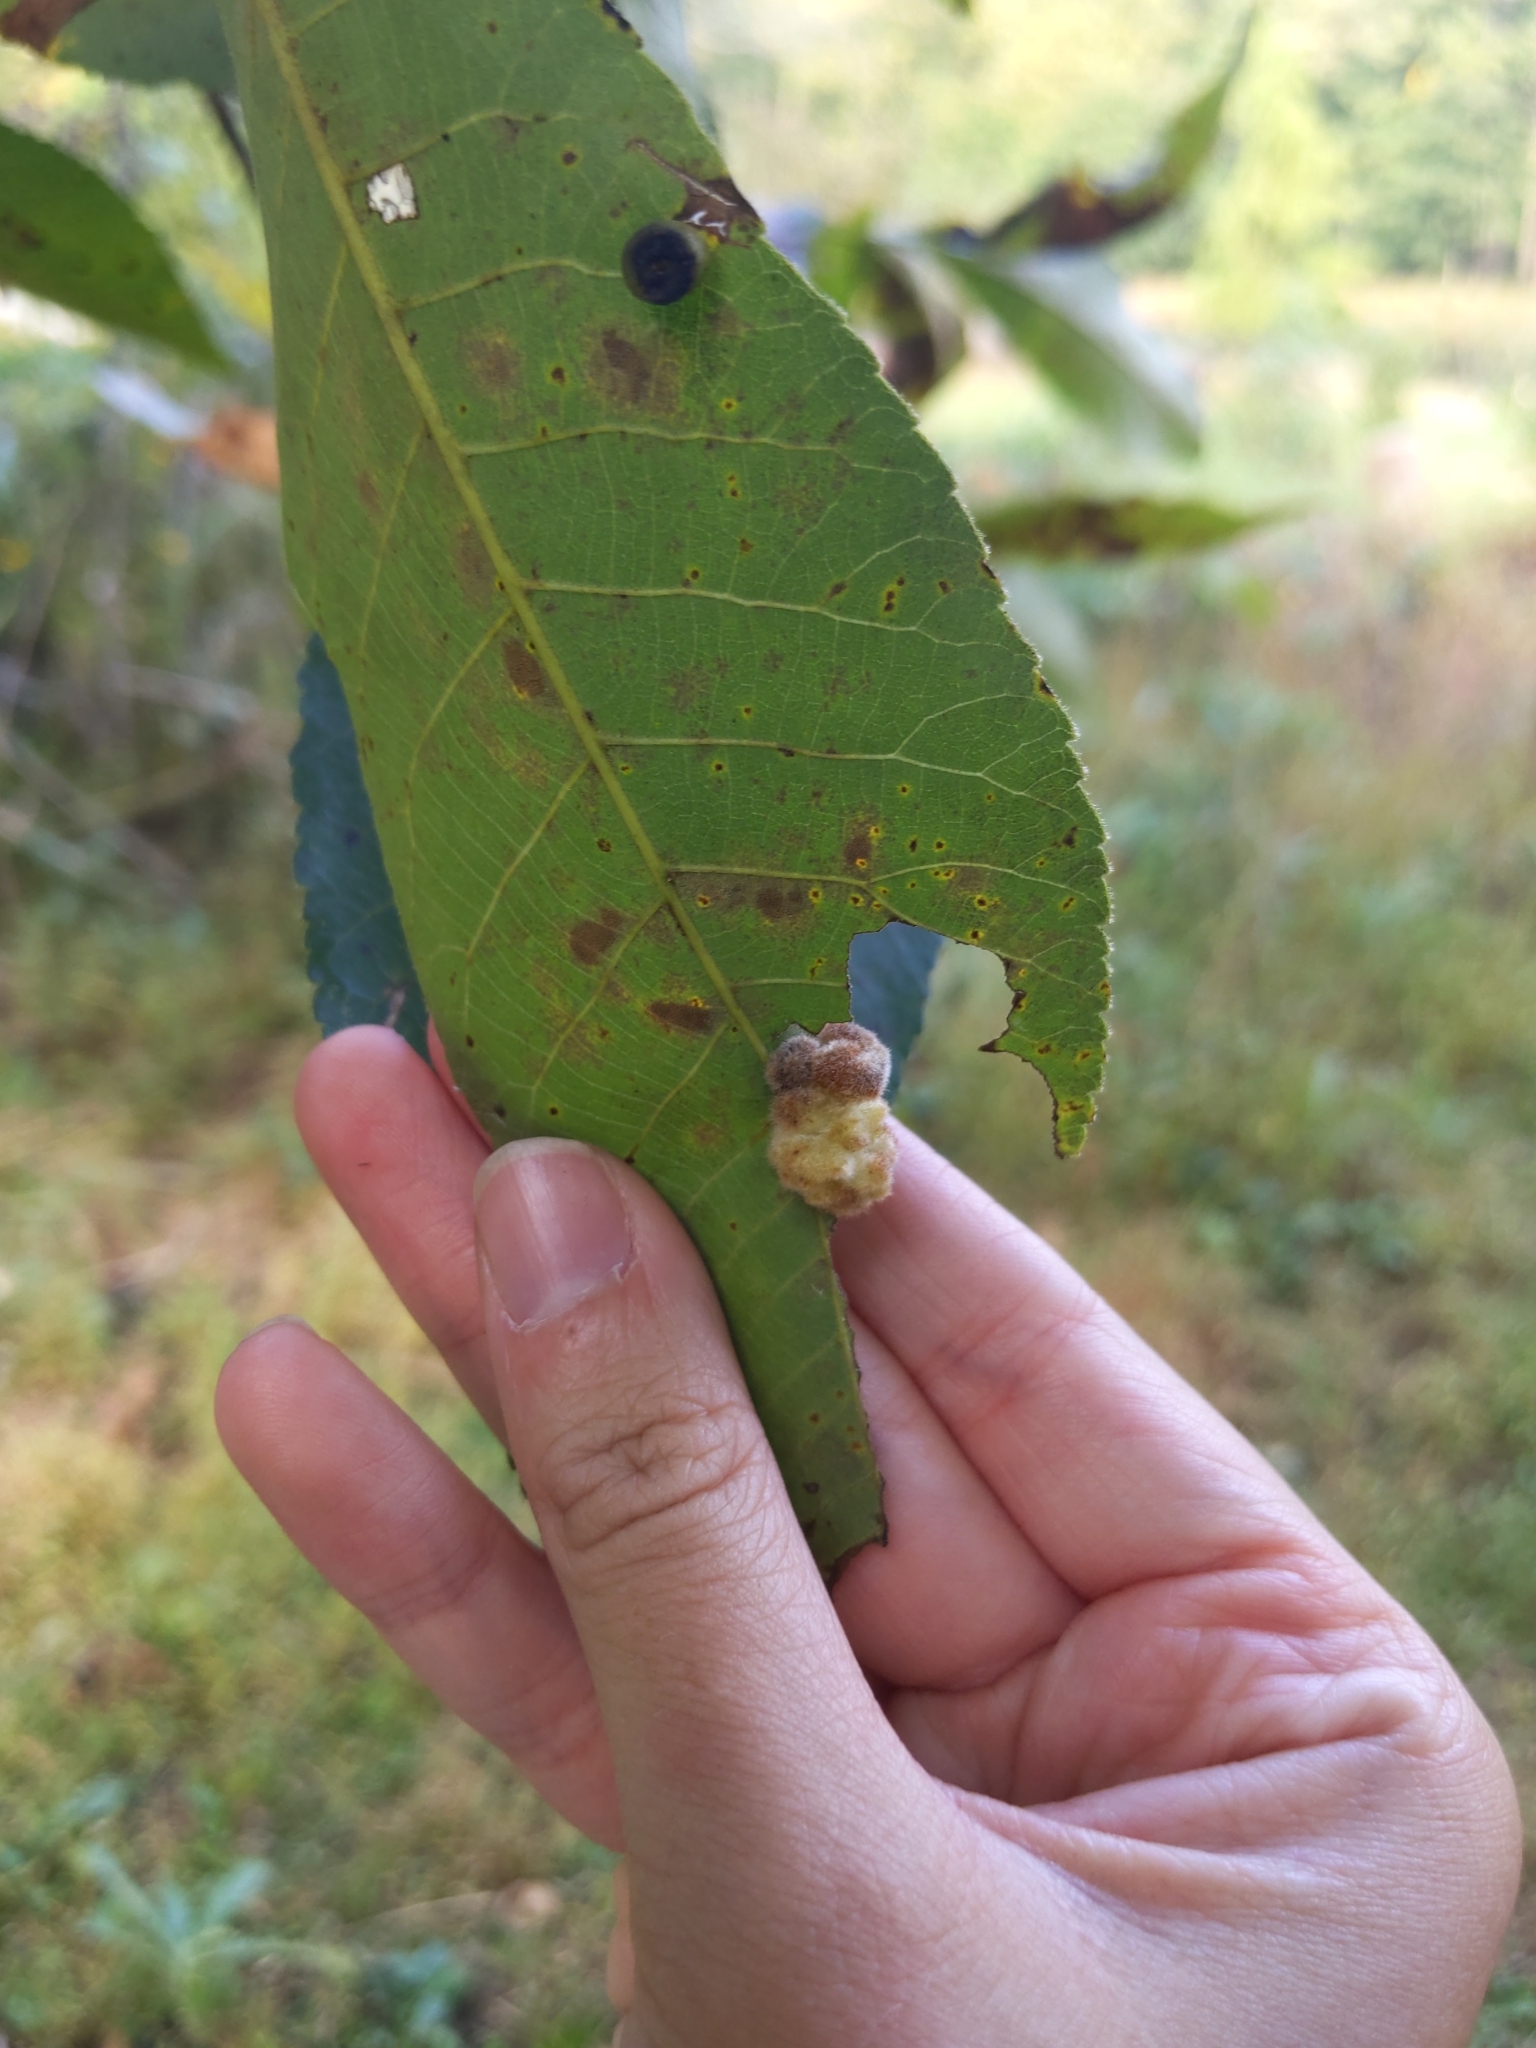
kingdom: Animalia
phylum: Arthropoda
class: Insecta
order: Diptera
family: Cecidomyiidae
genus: Caryomyia
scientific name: Caryomyia aggregata
